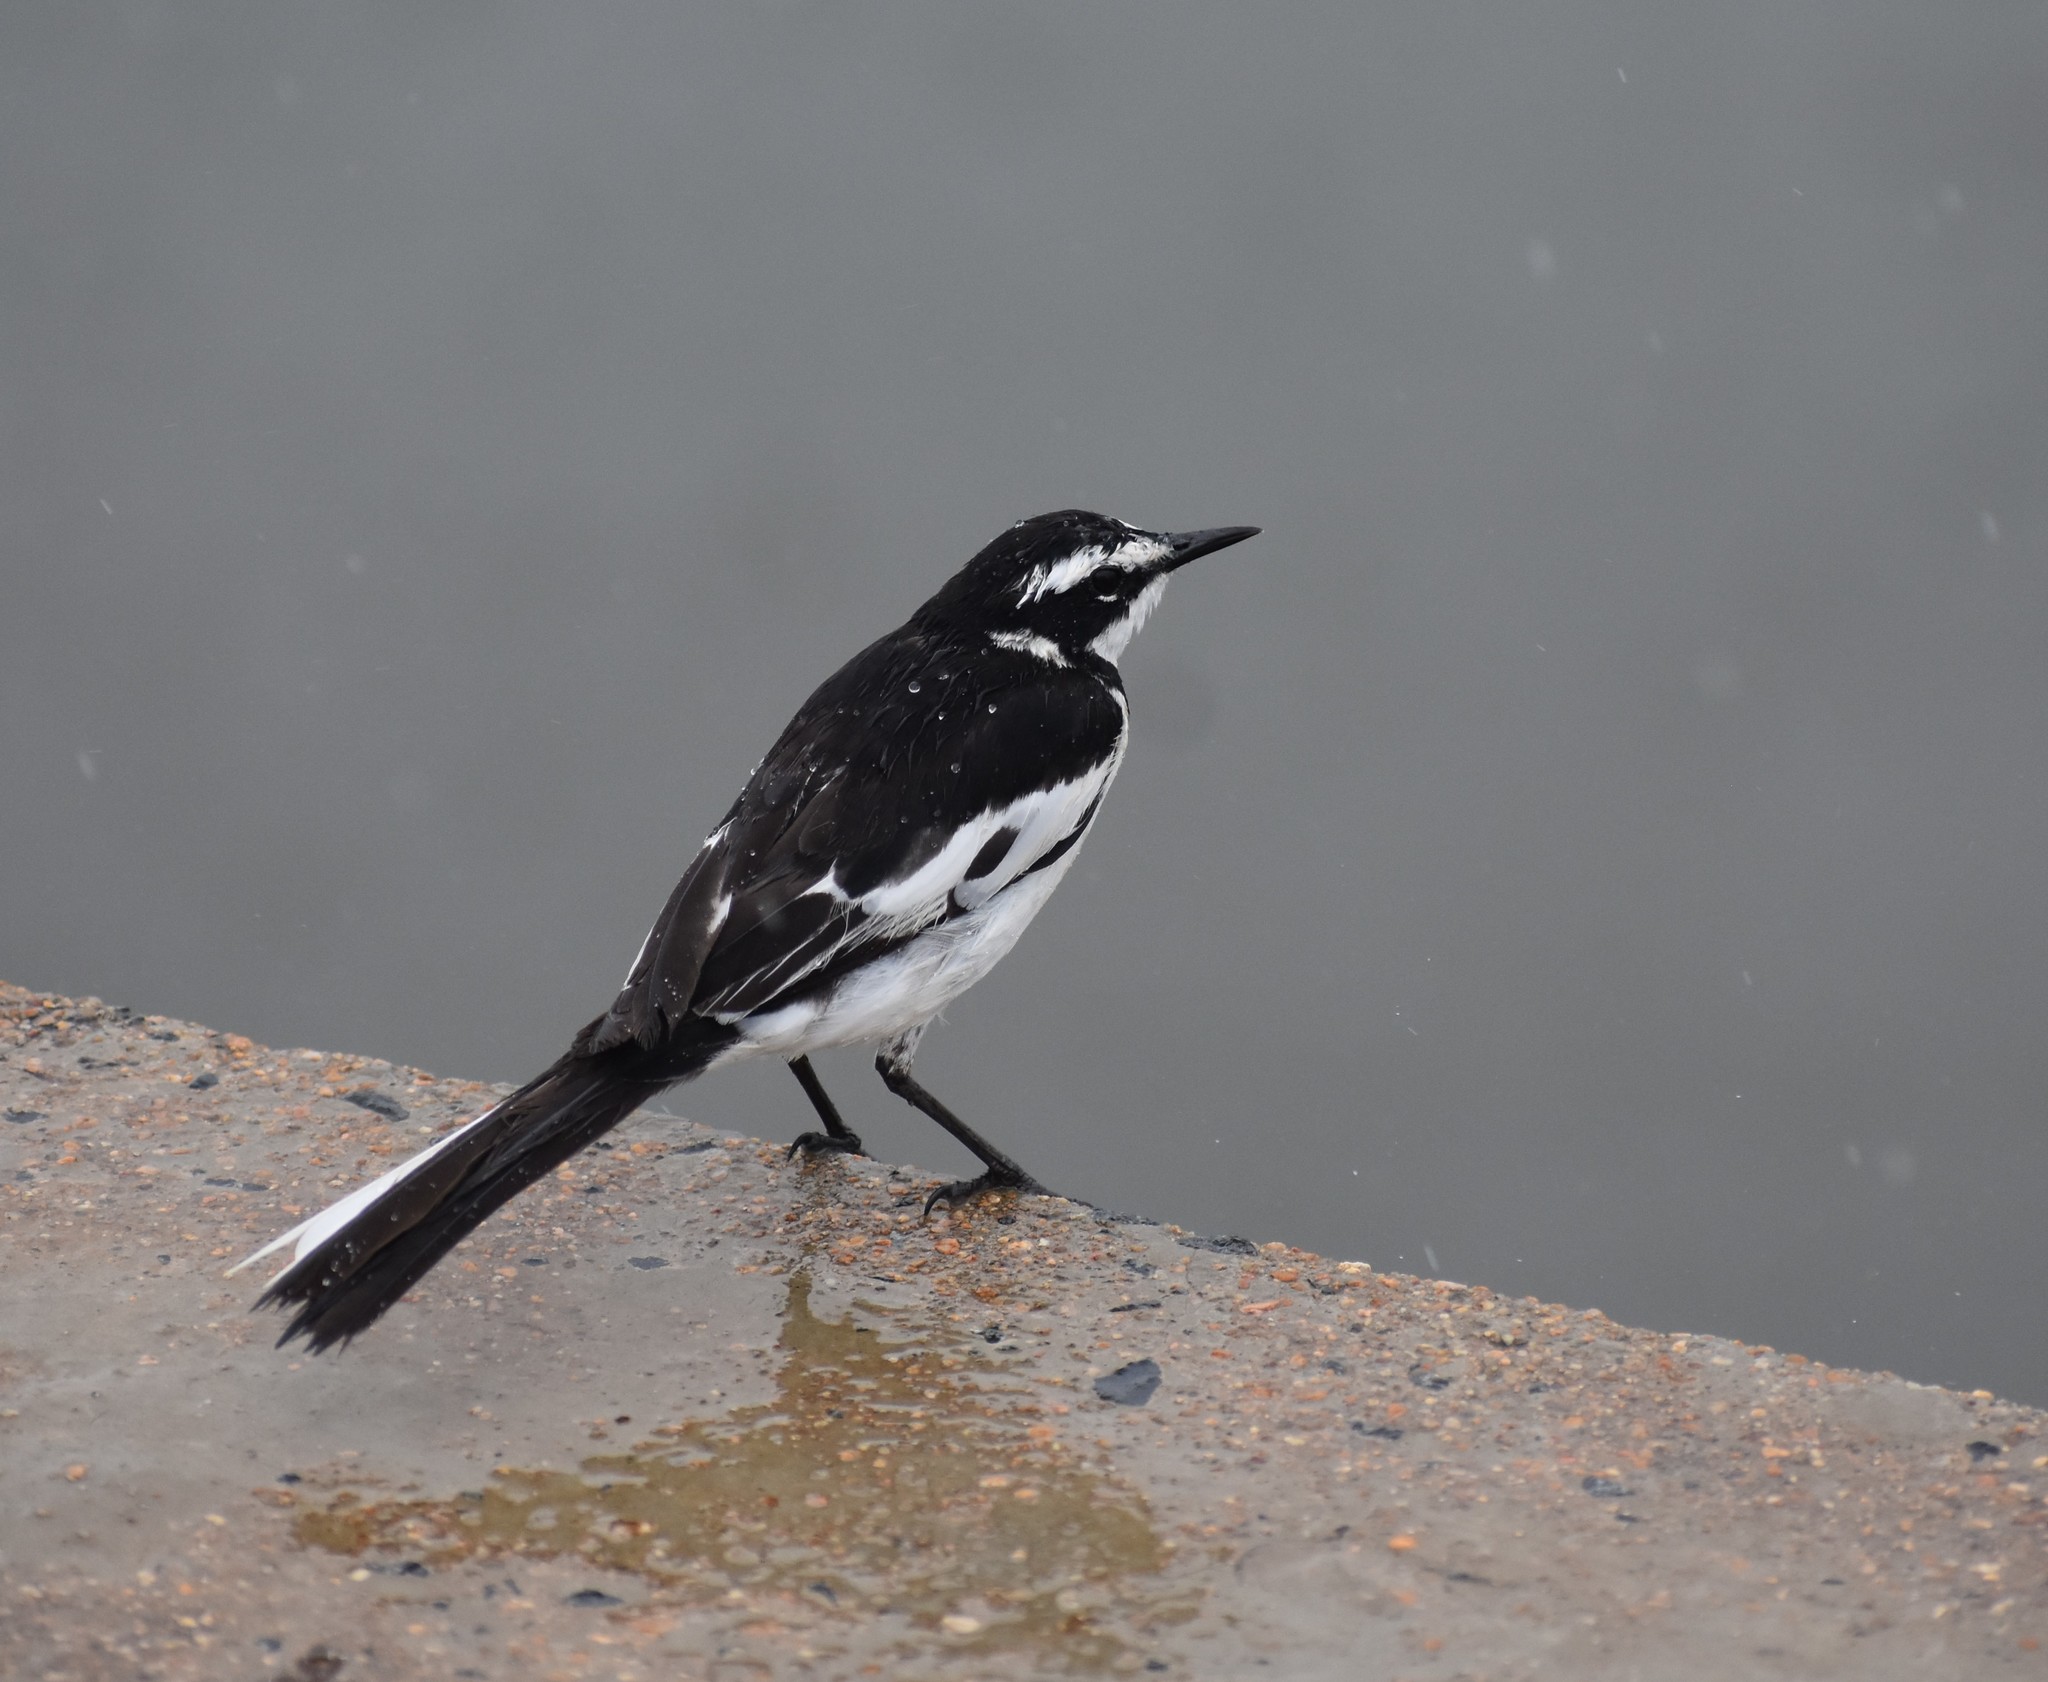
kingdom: Animalia
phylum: Chordata
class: Aves
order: Passeriformes
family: Motacillidae
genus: Motacilla
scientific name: Motacilla aguimp
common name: African pied wagtail
